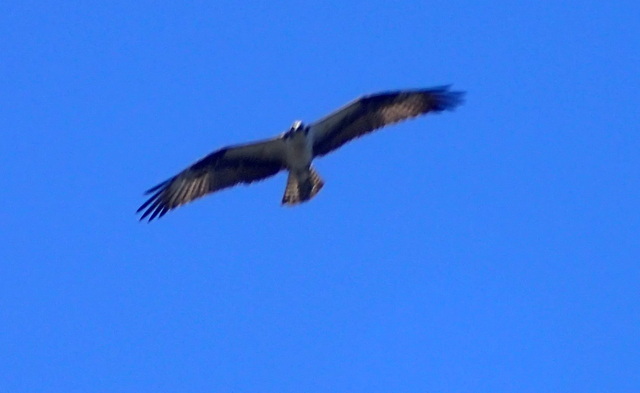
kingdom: Animalia
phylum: Chordata
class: Aves
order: Accipitriformes
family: Pandionidae
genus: Pandion
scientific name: Pandion haliaetus
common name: Osprey
